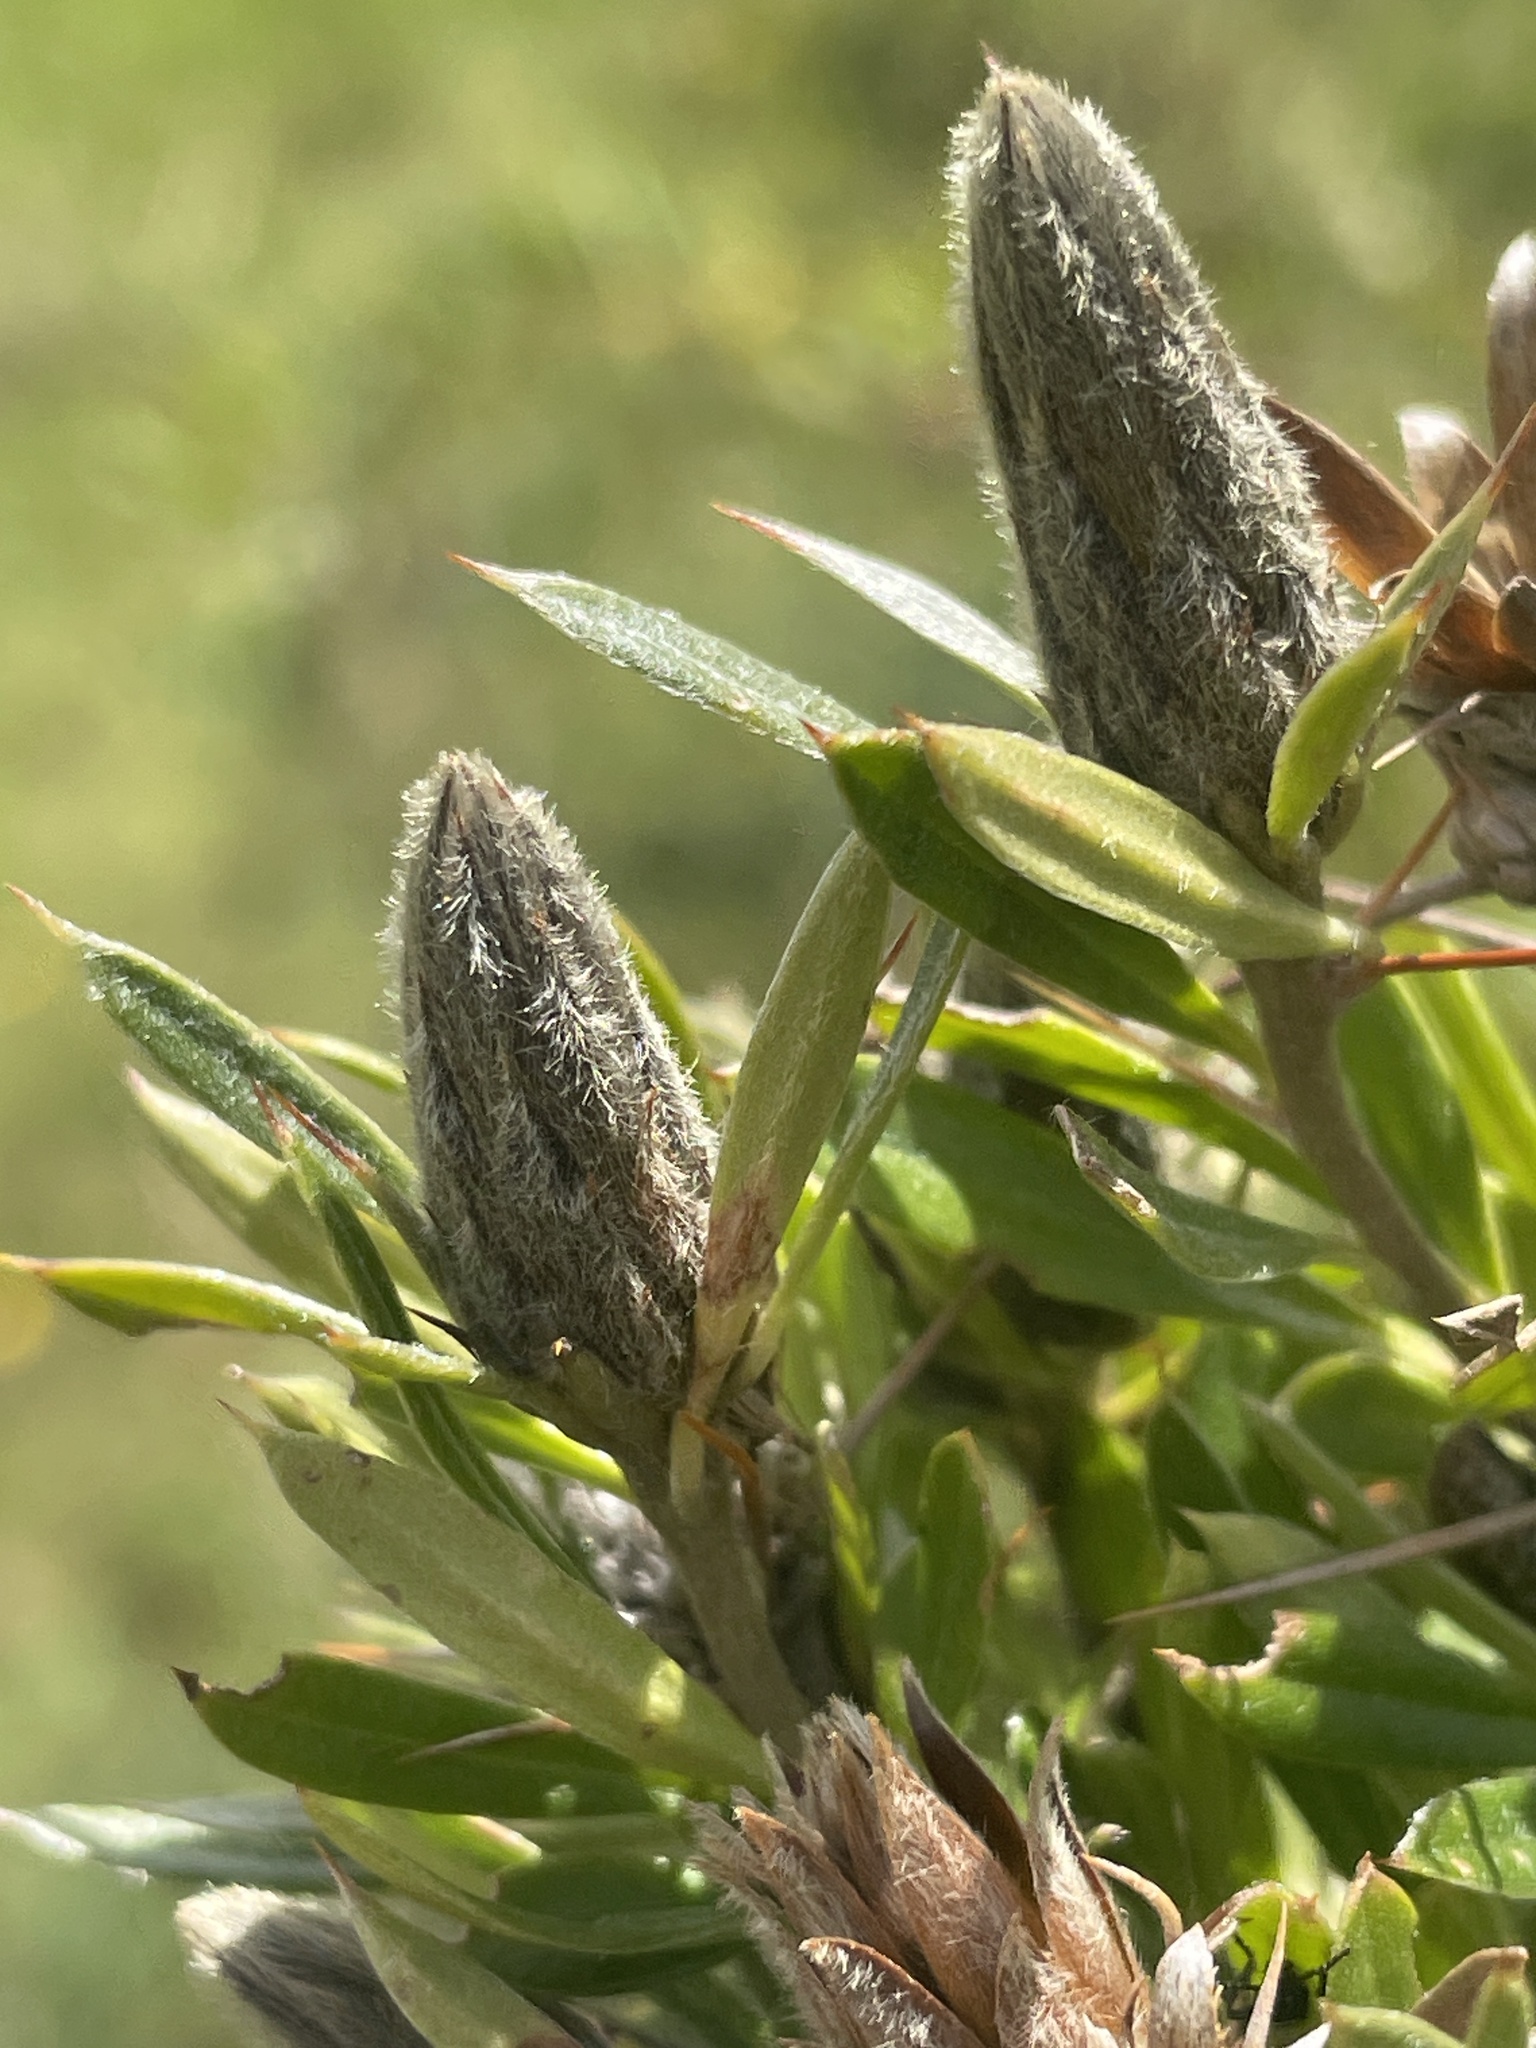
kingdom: Plantae
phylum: Tracheophyta
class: Magnoliopsida
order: Asterales
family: Asteraceae
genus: Barnadesia
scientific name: Barnadesia horrida
